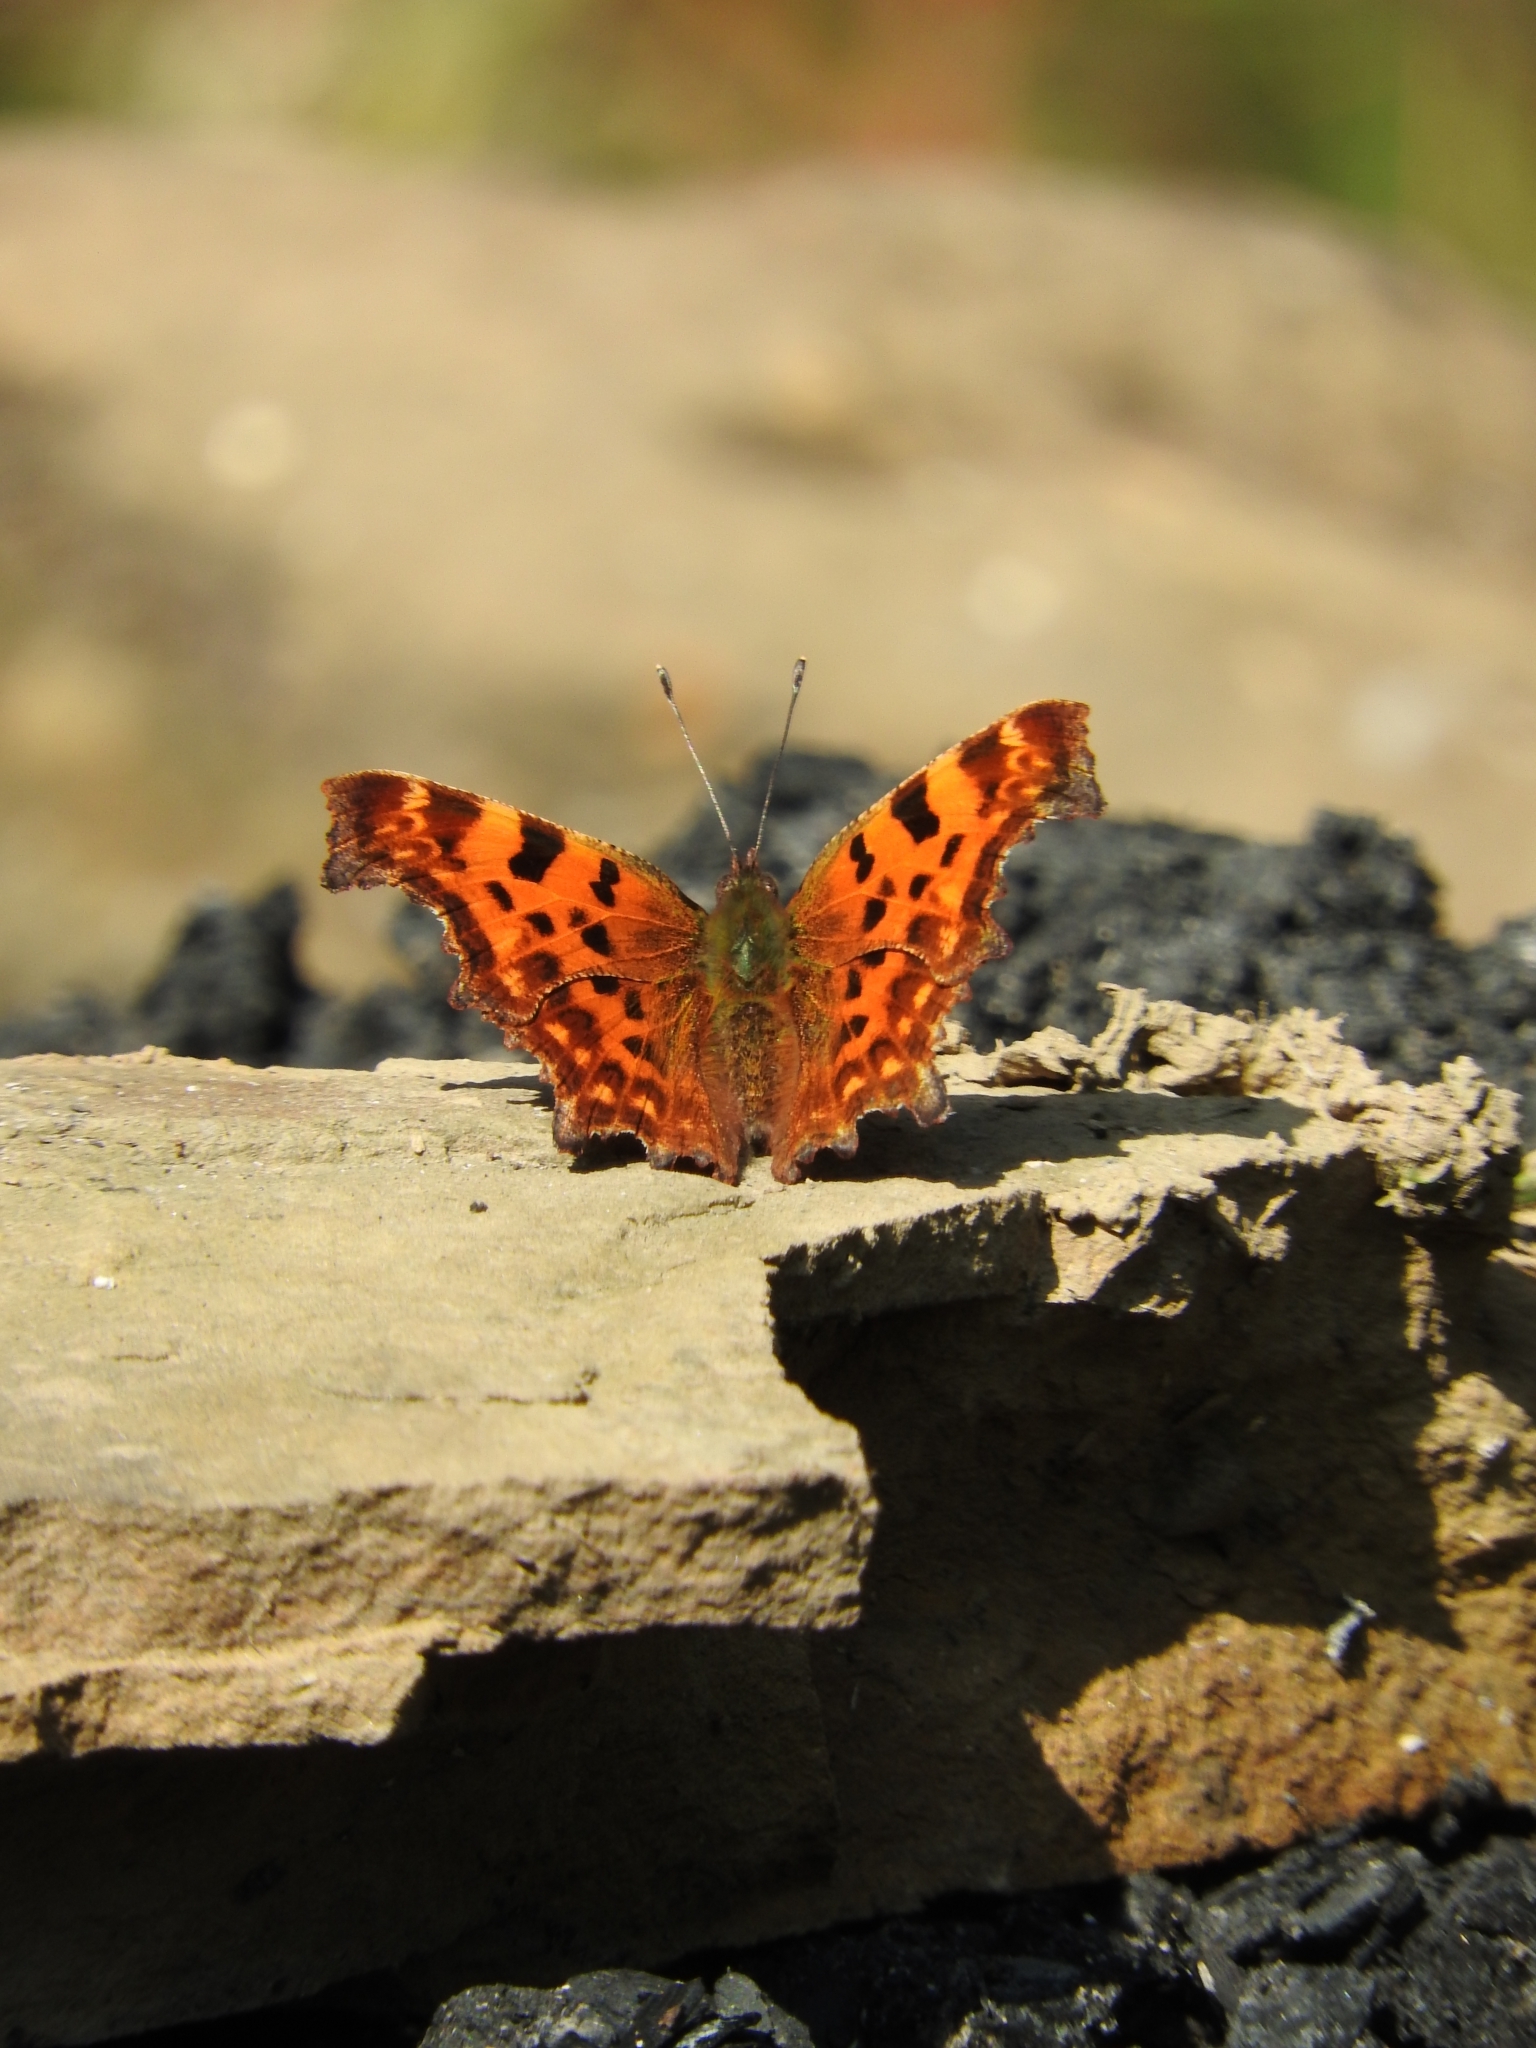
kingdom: Animalia
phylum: Arthropoda
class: Insecta
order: Lepidoptera
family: Nymphalidae
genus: Polygonia
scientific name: Polygonia c-album
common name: Comma
